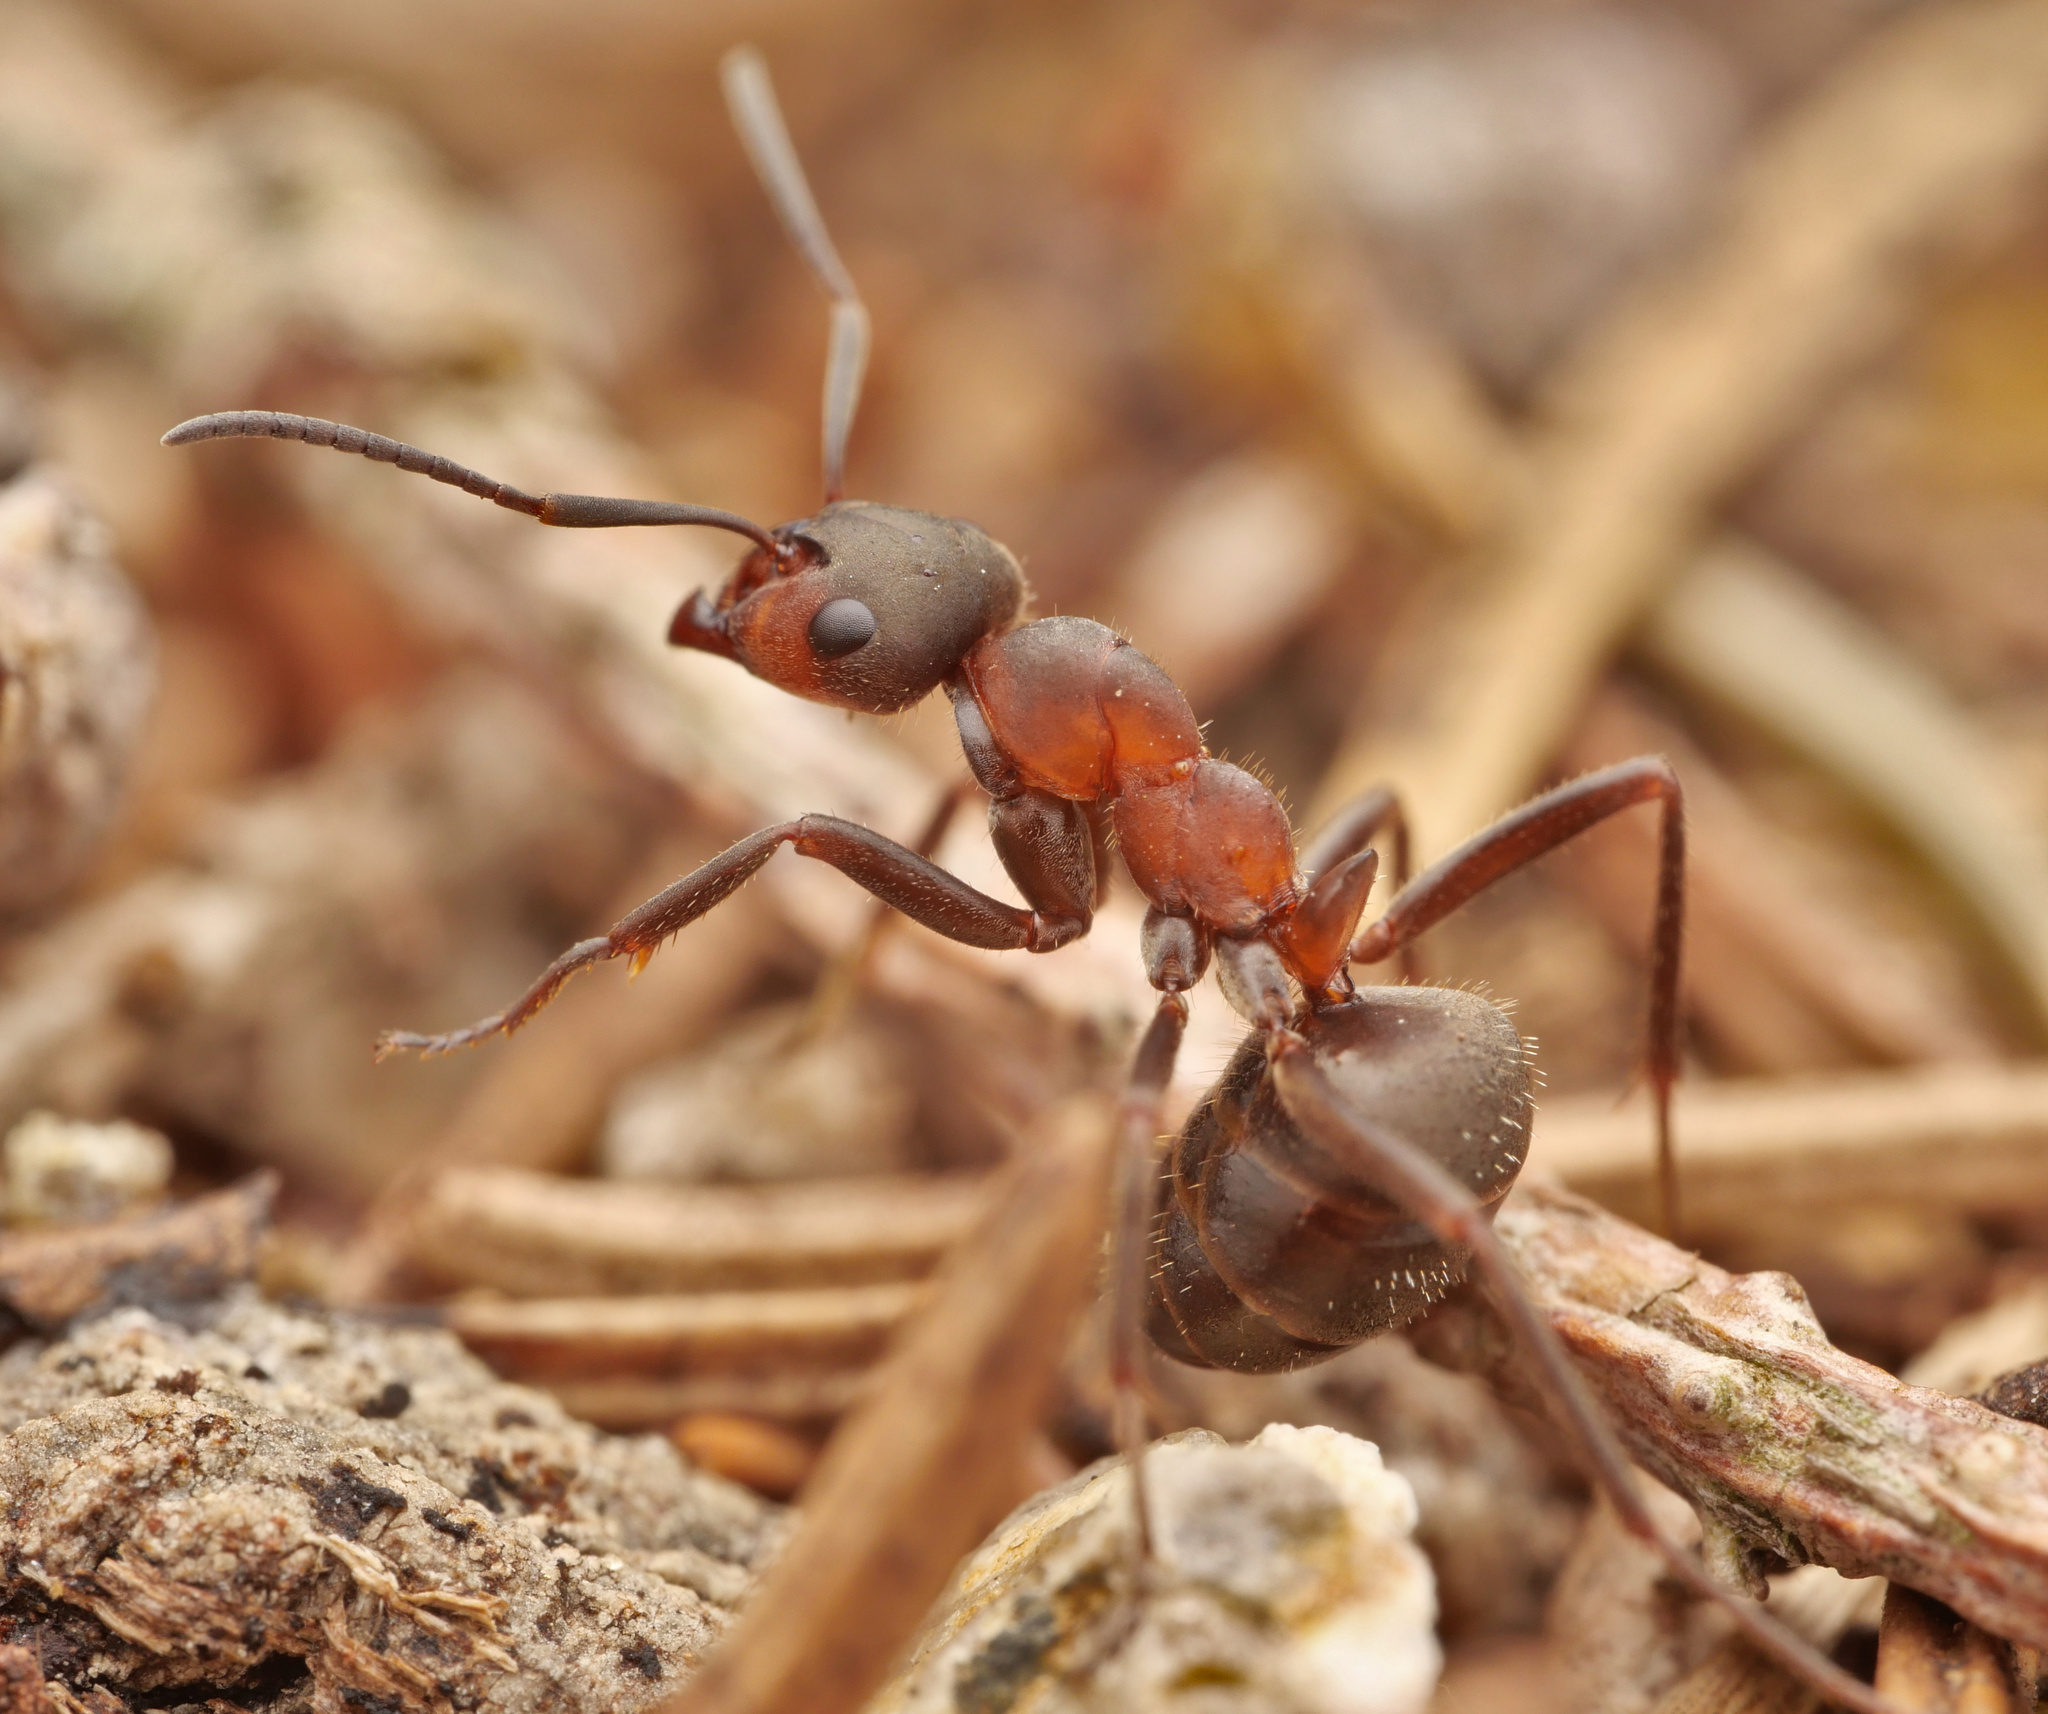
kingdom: Animalia
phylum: Arthropoda
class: Insecta
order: Hymenoptera
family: Formicidae
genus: Formica
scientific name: Formica lugubris
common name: Sinister mound ant
